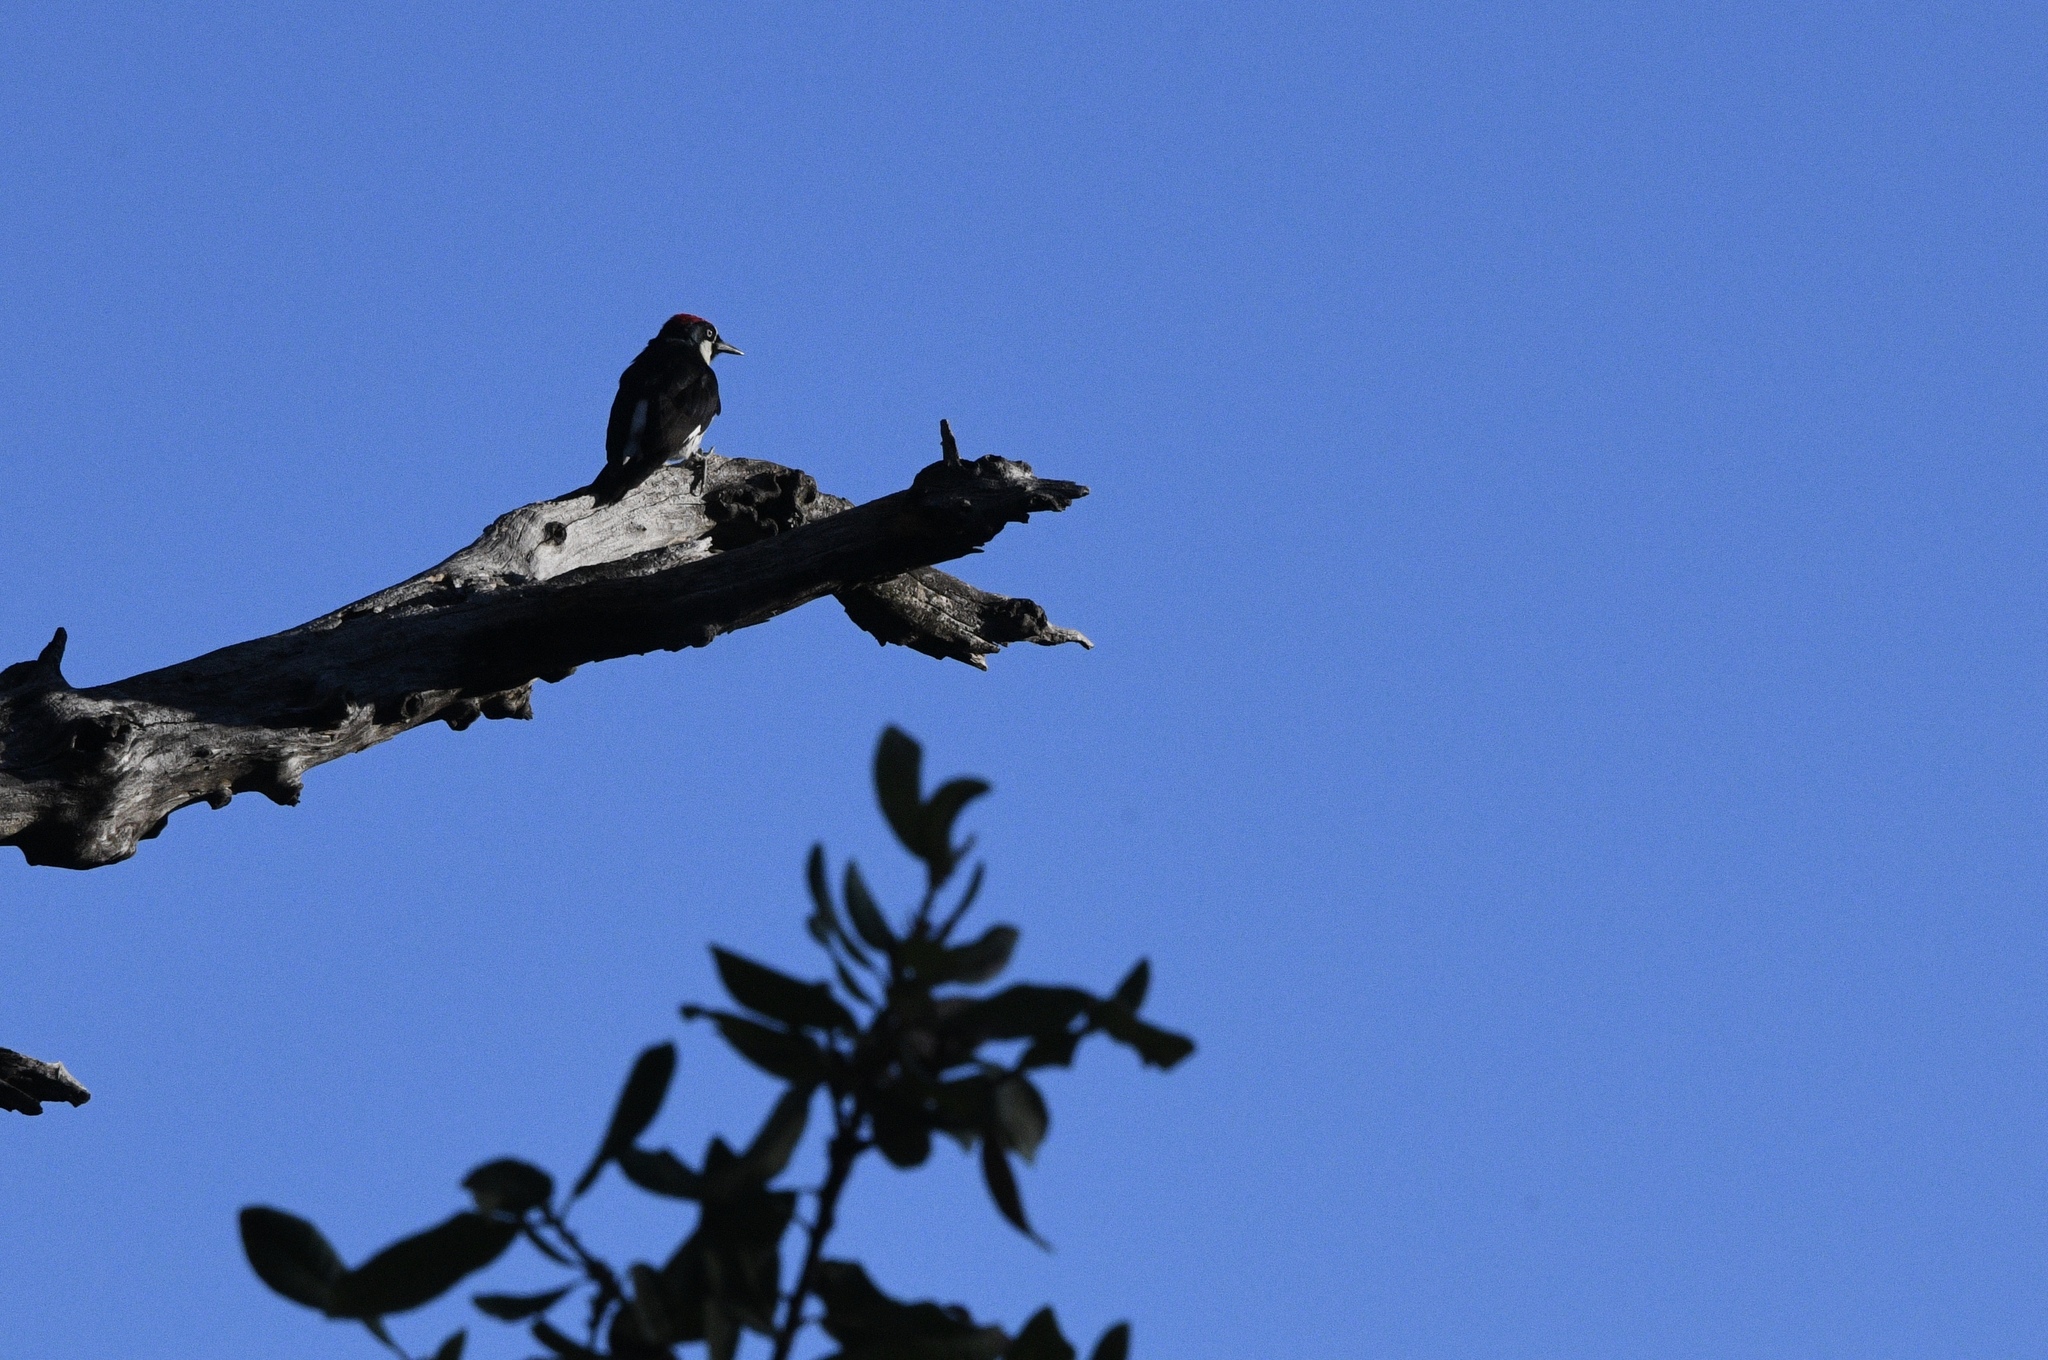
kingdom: Animalia
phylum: Chordata
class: Aves
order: Piciformes
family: Picidae
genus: Melanerpes
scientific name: Melanerpes formicivorus
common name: Acorn woodpecker
